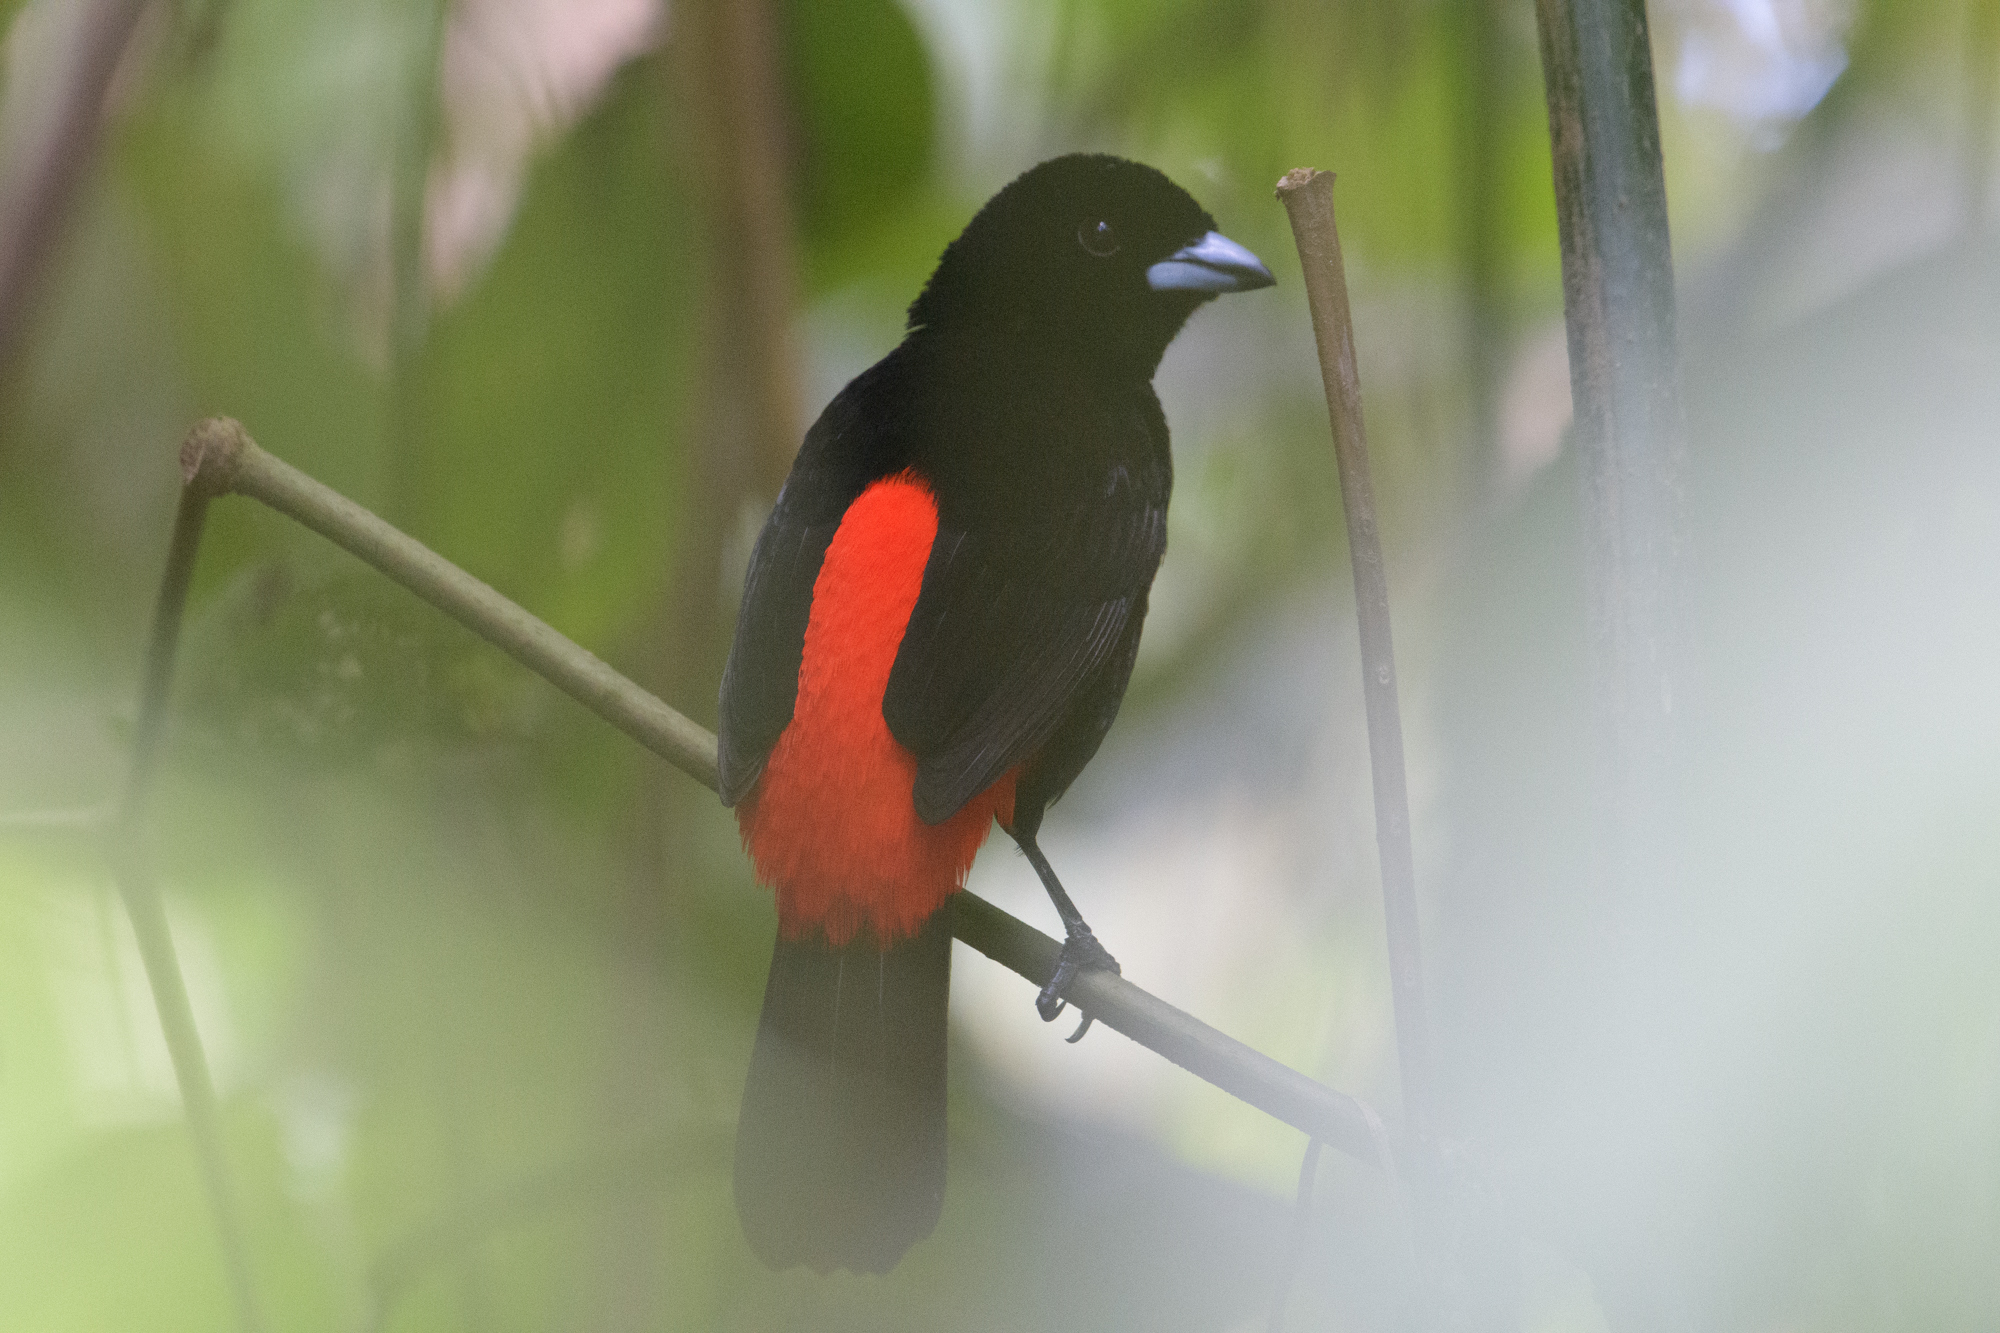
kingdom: Animalia
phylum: Chordata
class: Aves
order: Passeriformes
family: Thraupidae
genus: Ramphocelus
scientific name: Ramphocelus passerinii
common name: Passerini's tanager
